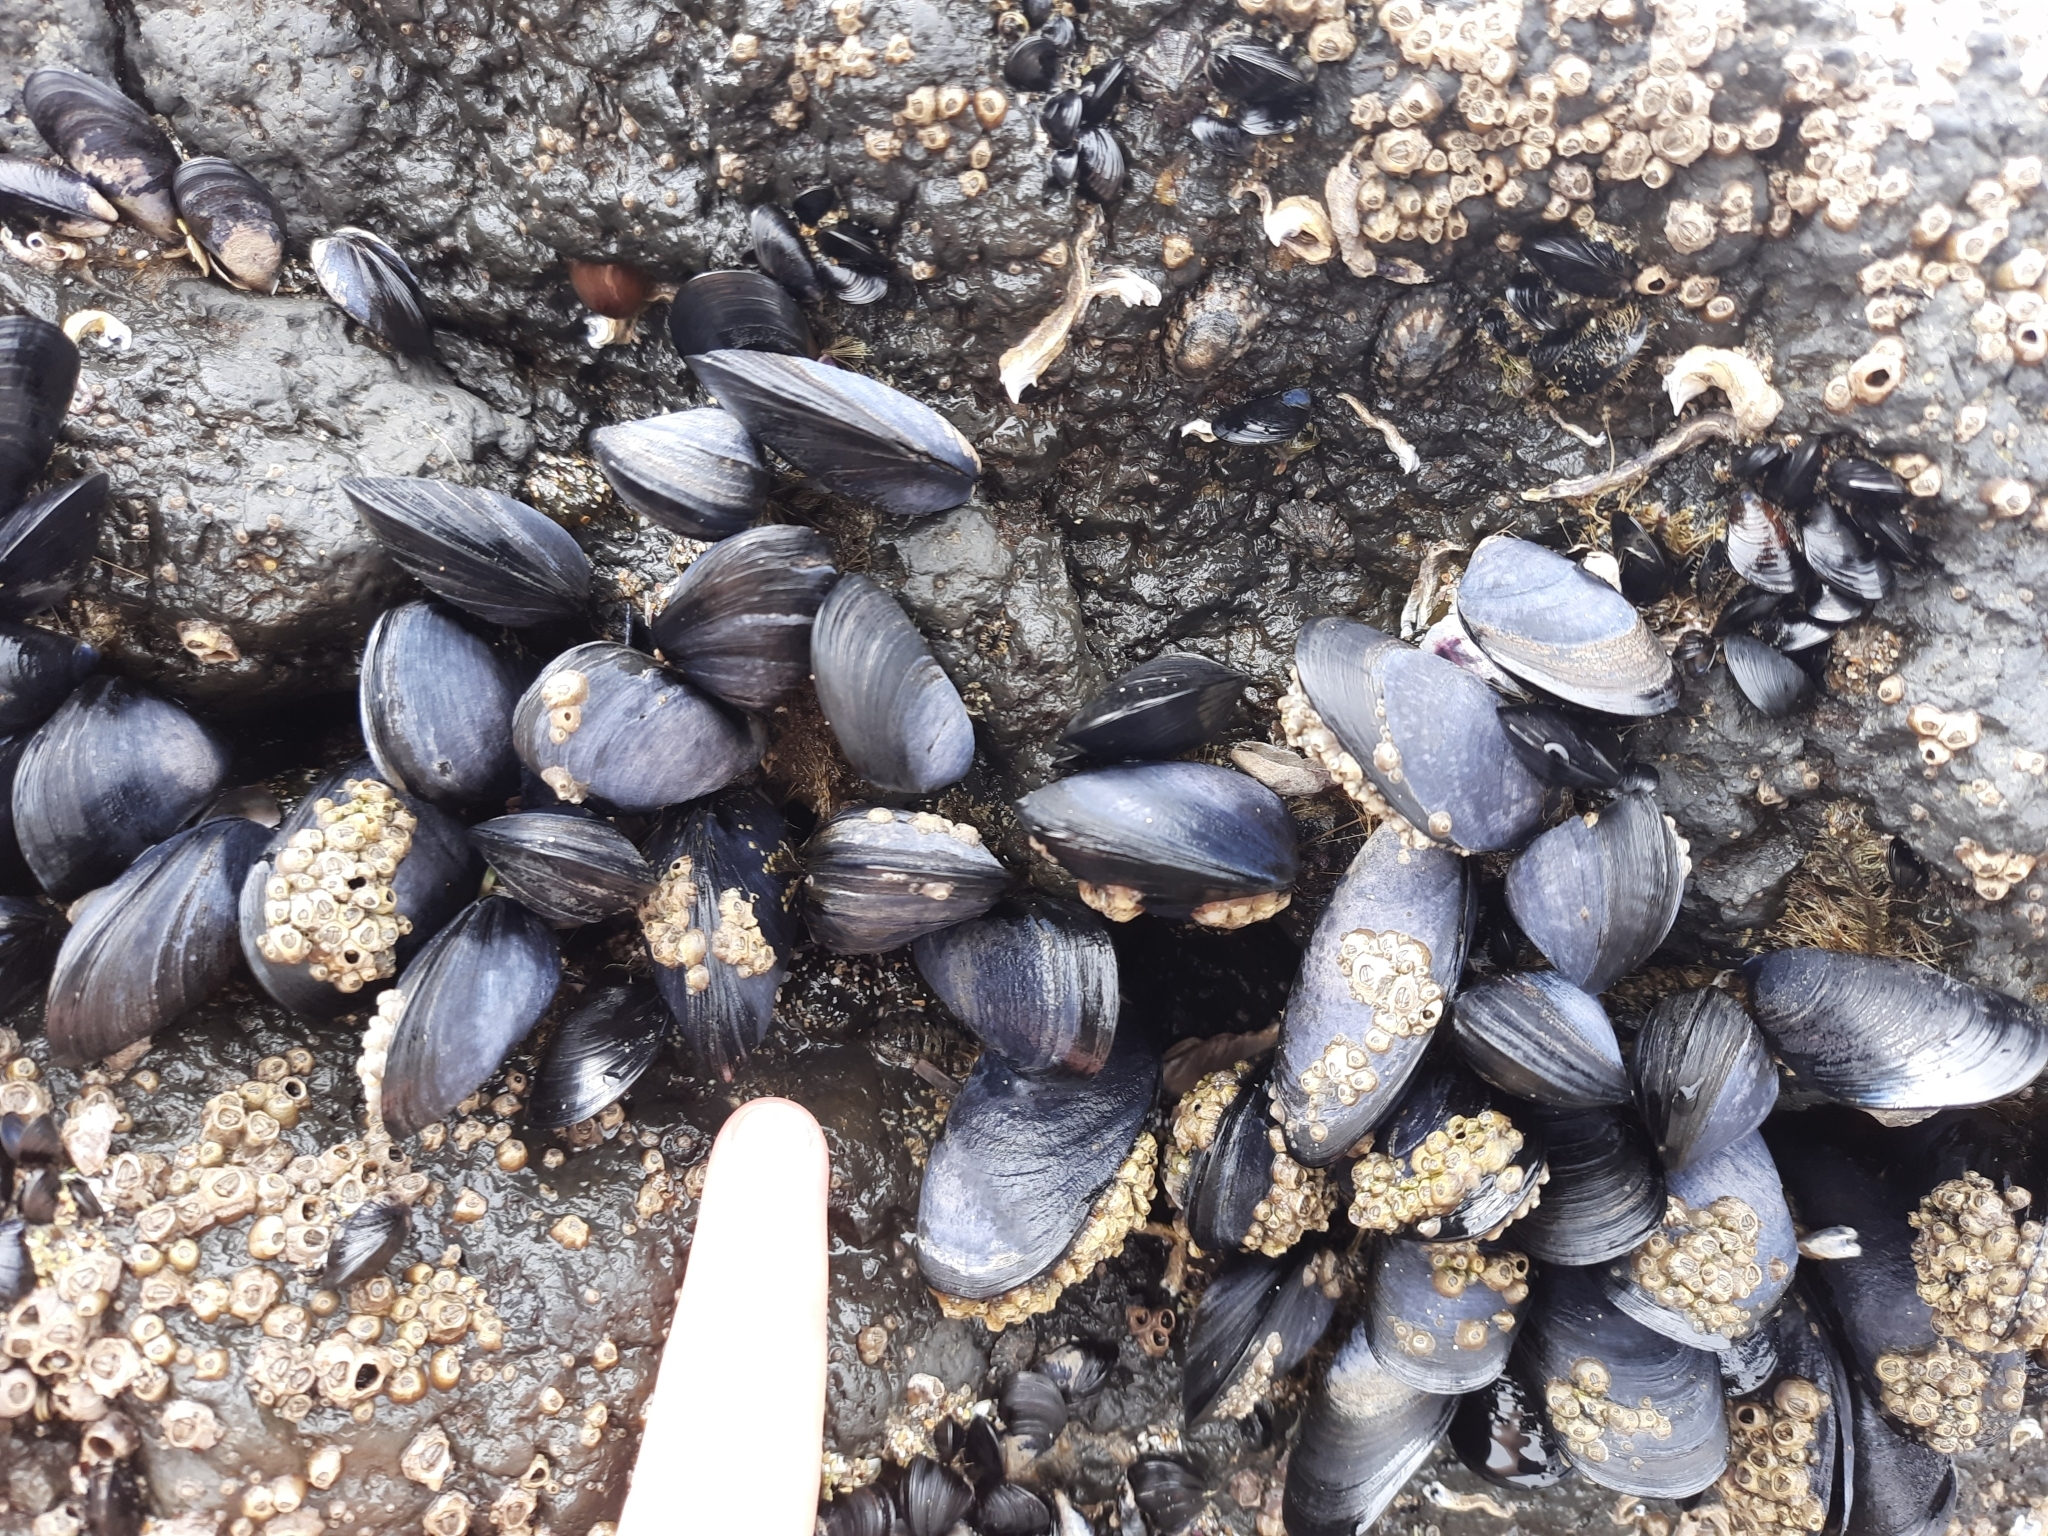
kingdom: Animalia
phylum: Mollusca
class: Bivalvia
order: Mytilida
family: Mytilidae
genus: Mytilus
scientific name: Mytilus planulatus
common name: Australian mussel
